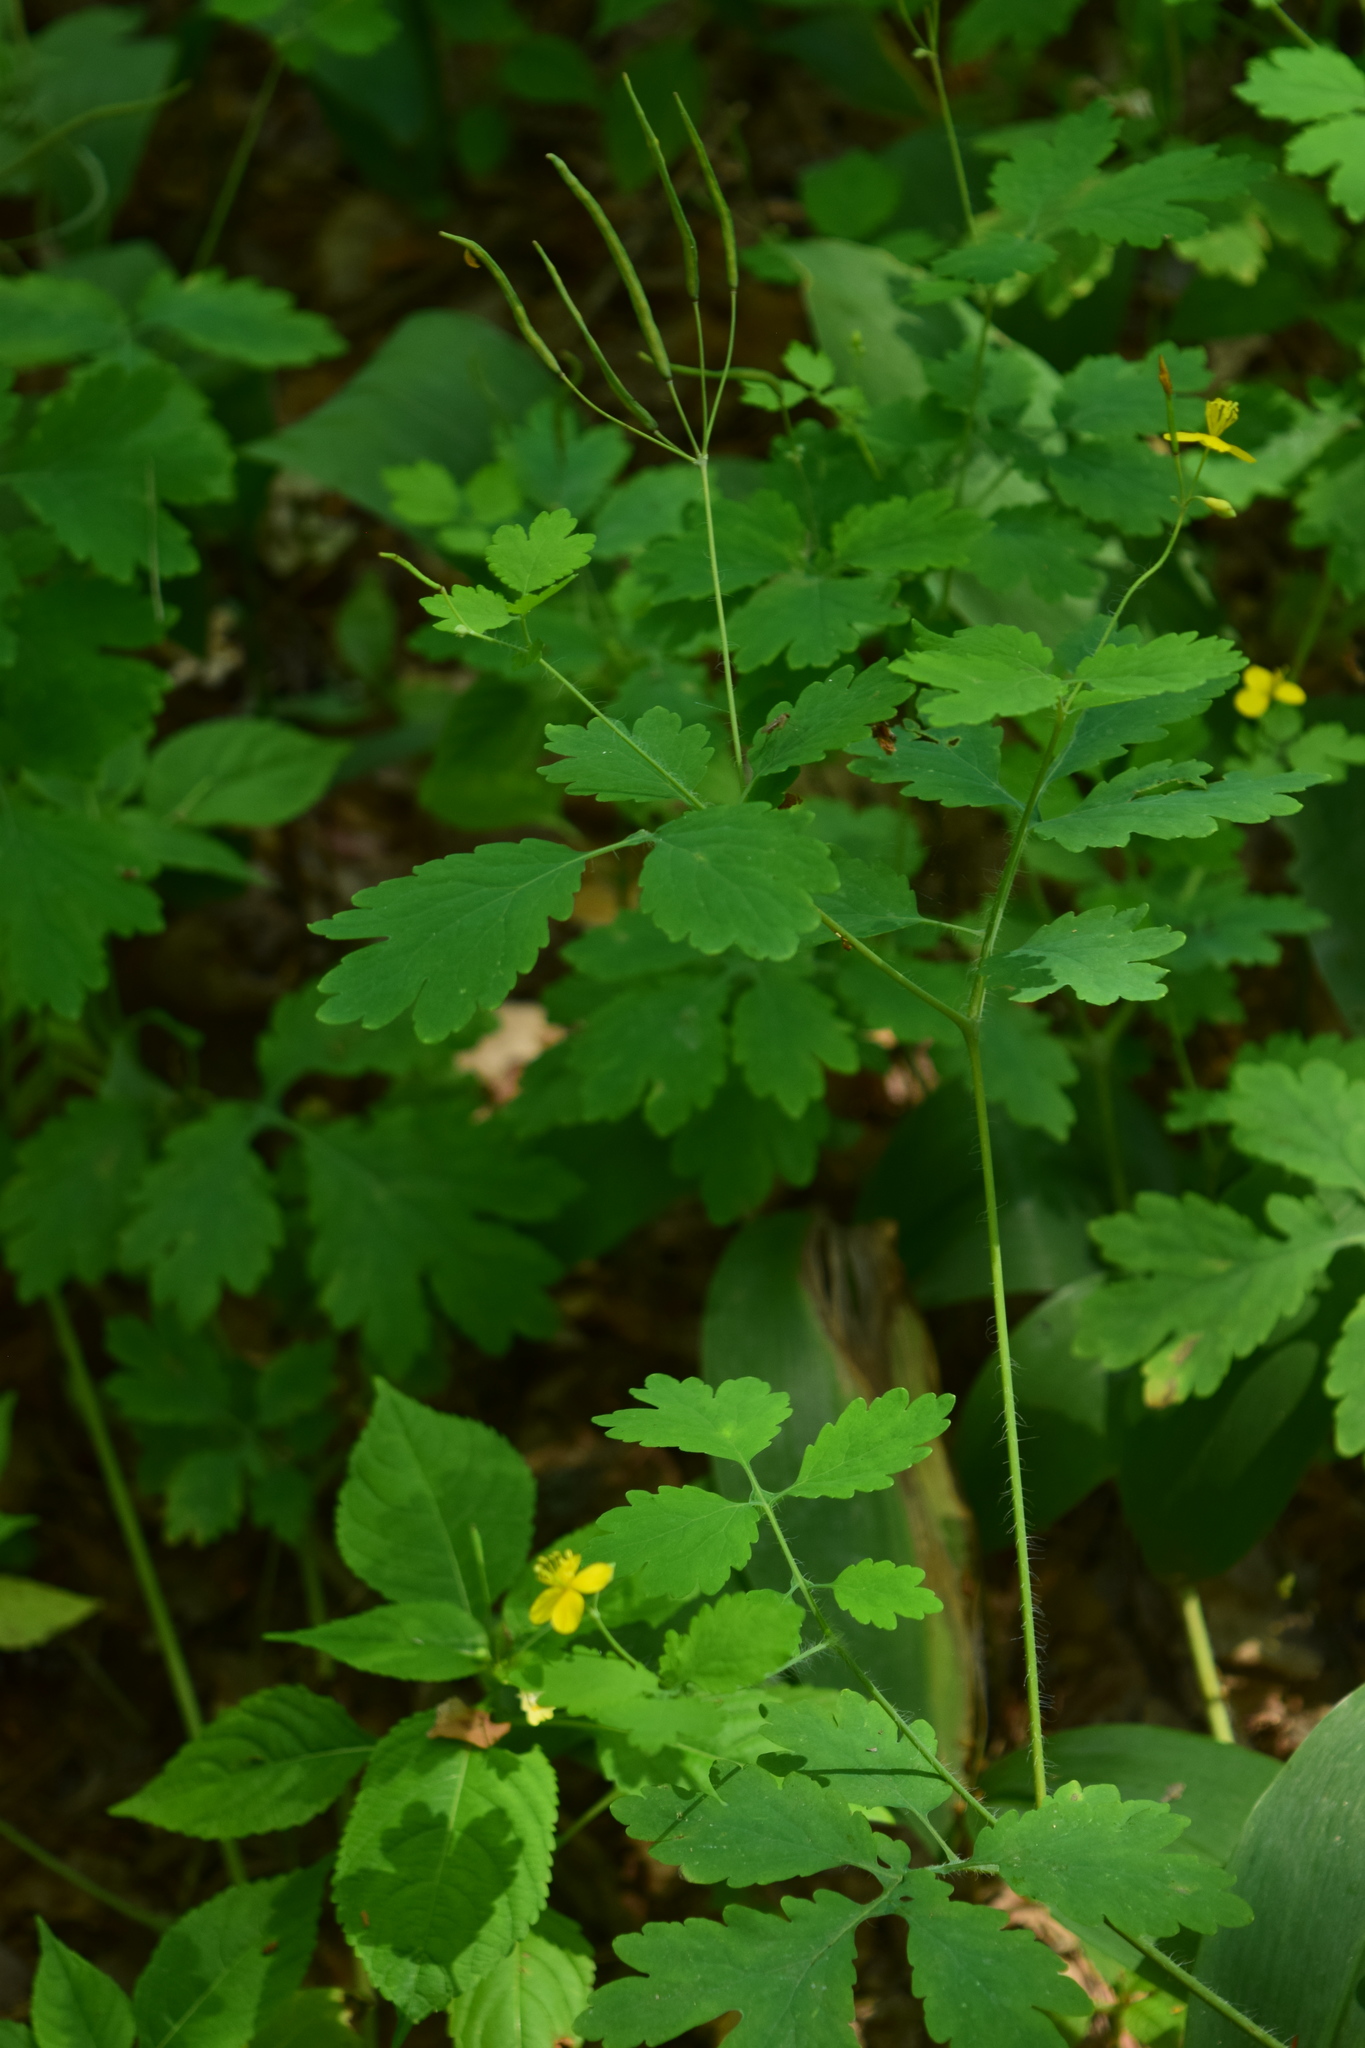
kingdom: Plantae
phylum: Tracheophyta
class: Magnoliopsida
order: Ranunculales
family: Papaveraceae
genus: Chelidonium
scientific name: Chelidonium majus
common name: Greater celandine
